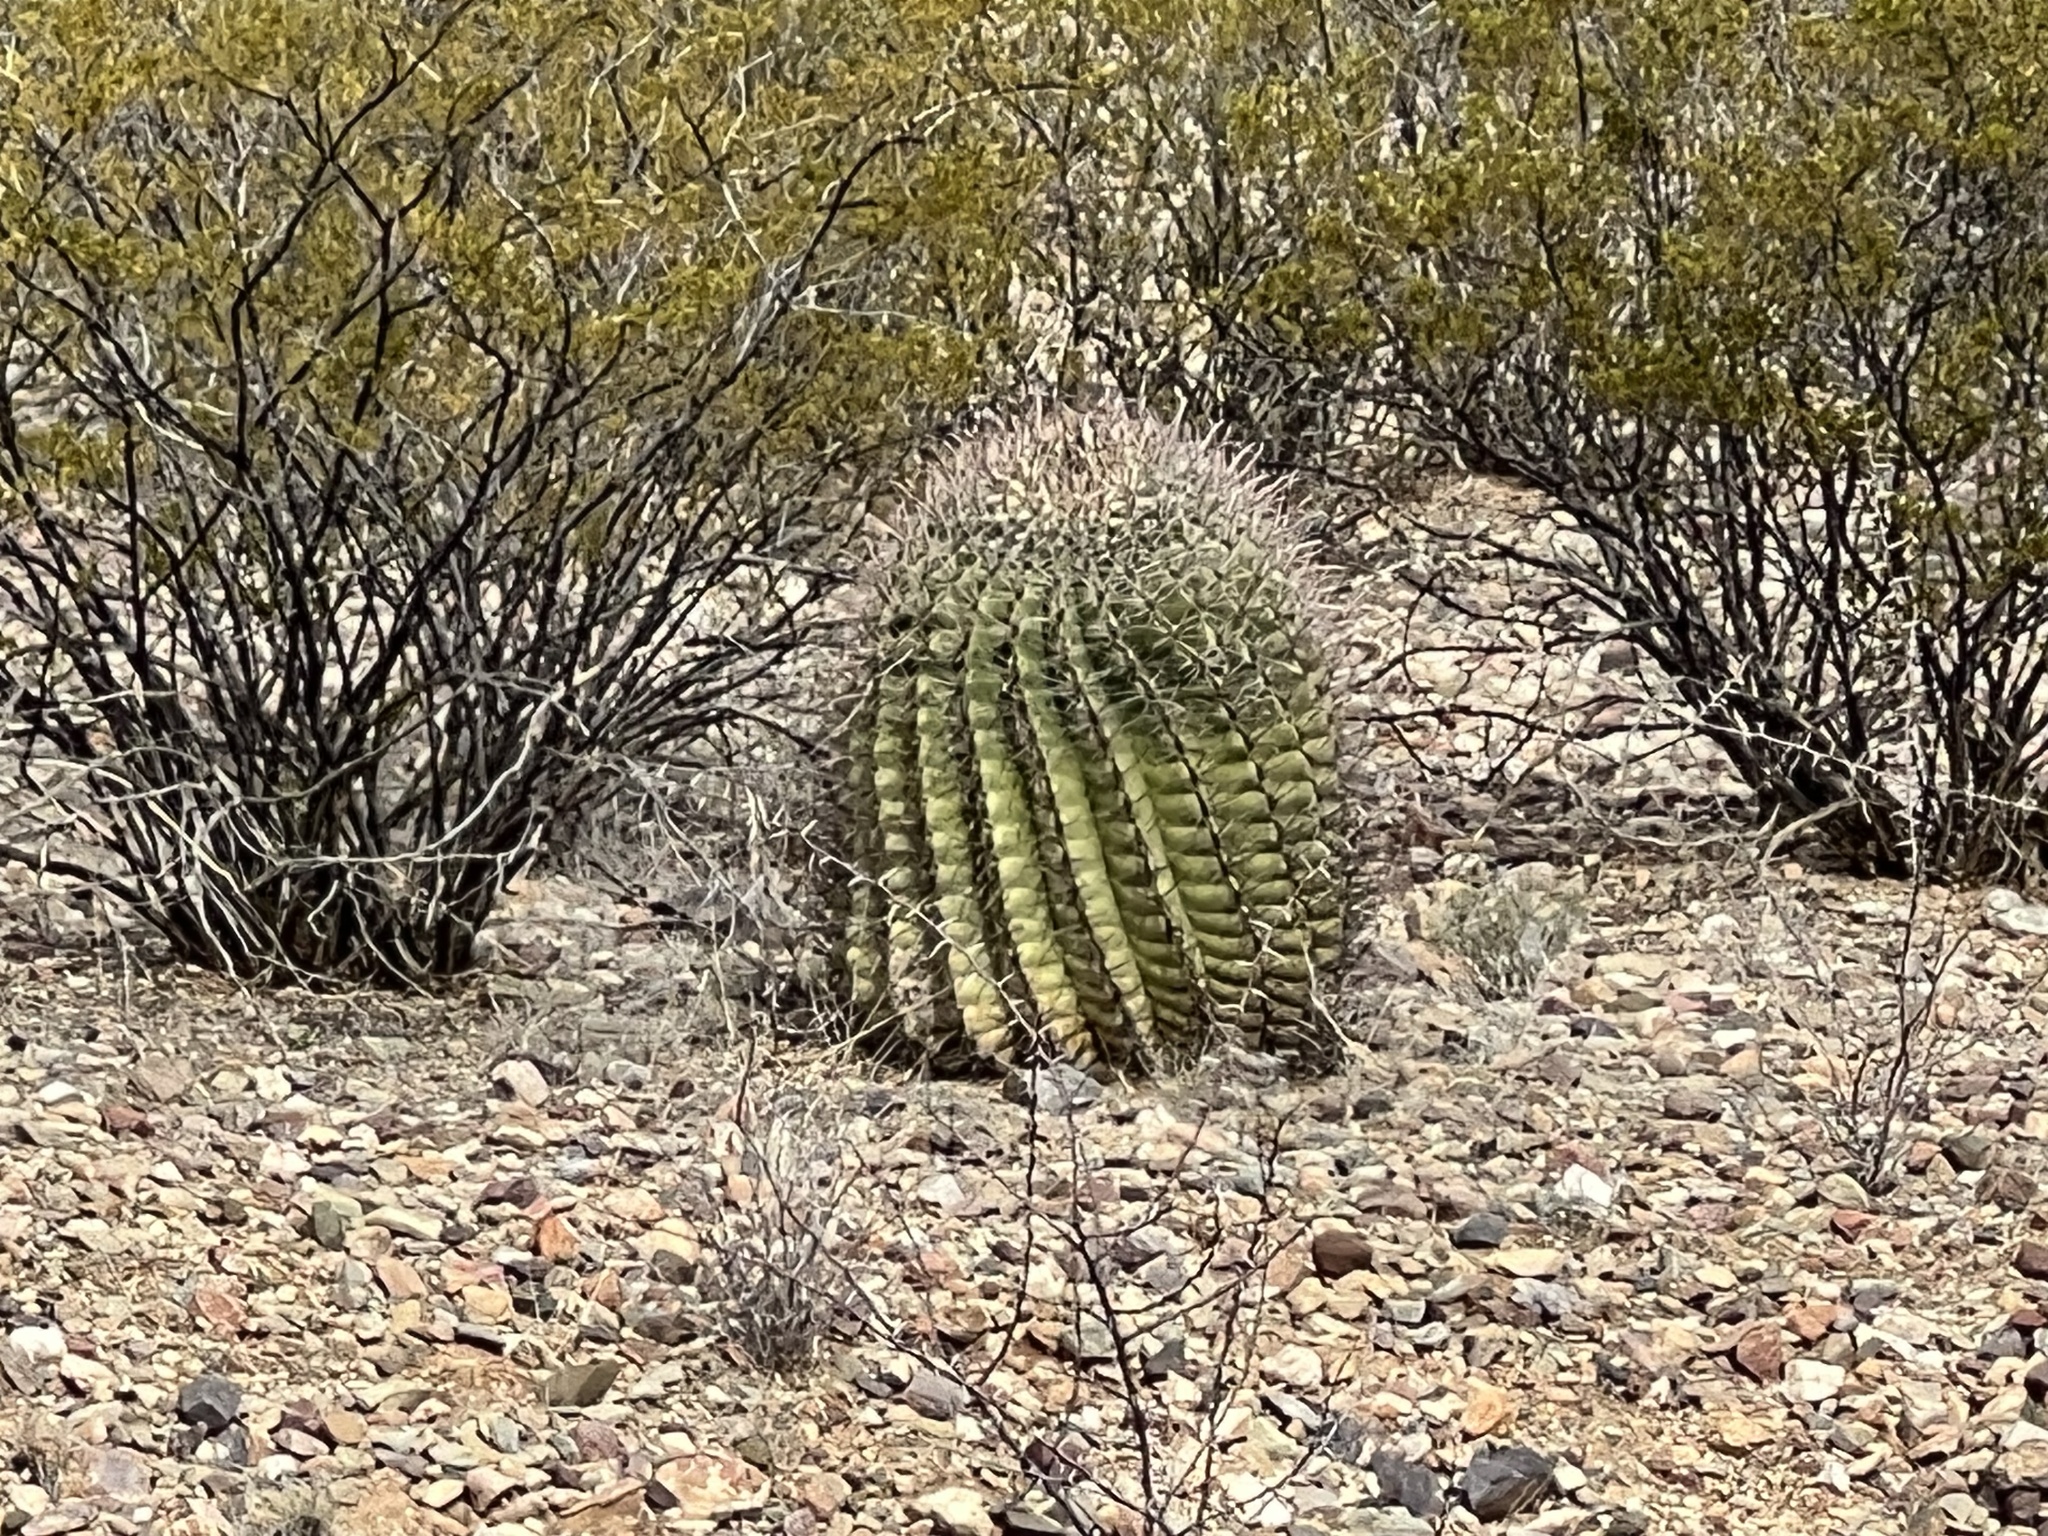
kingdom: Plantae
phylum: Tracheophyta
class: Magnoliopsida
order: Caryophyllales
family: Cactaceae
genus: Ferocactus
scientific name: Ferocactus wislizeni
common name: Candy barrel cactus
